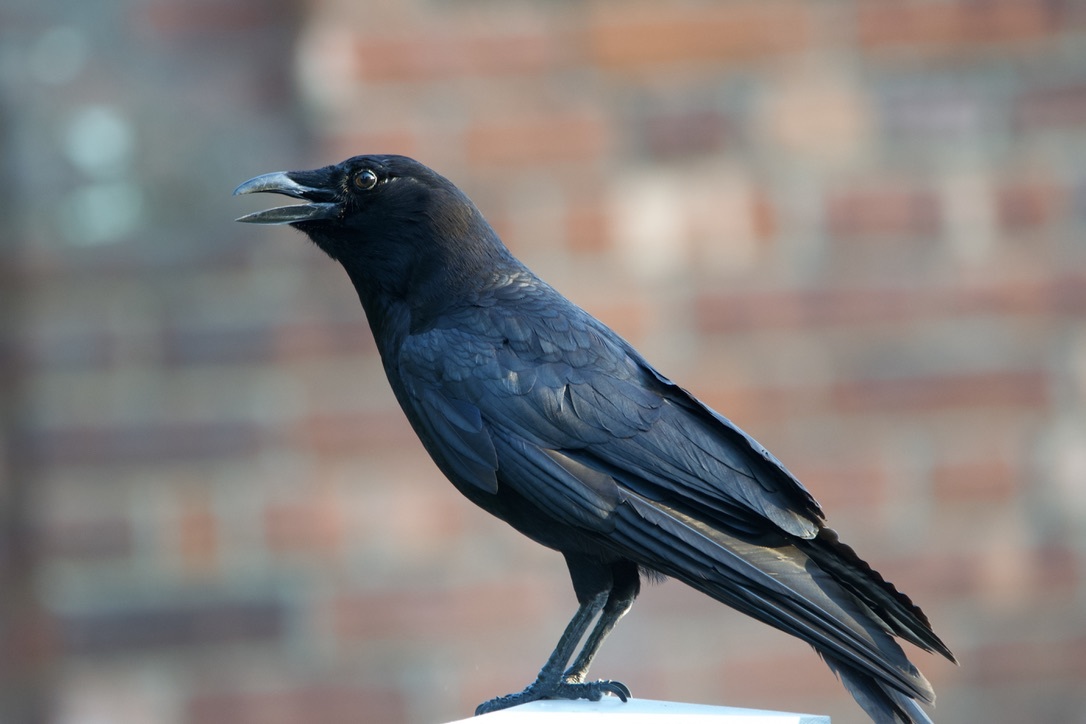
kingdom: Animalia
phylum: Chordata
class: Aves
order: Passeriformes
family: Corvidae
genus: Corvus
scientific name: Corvus brachyrhynchos
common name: American crow
